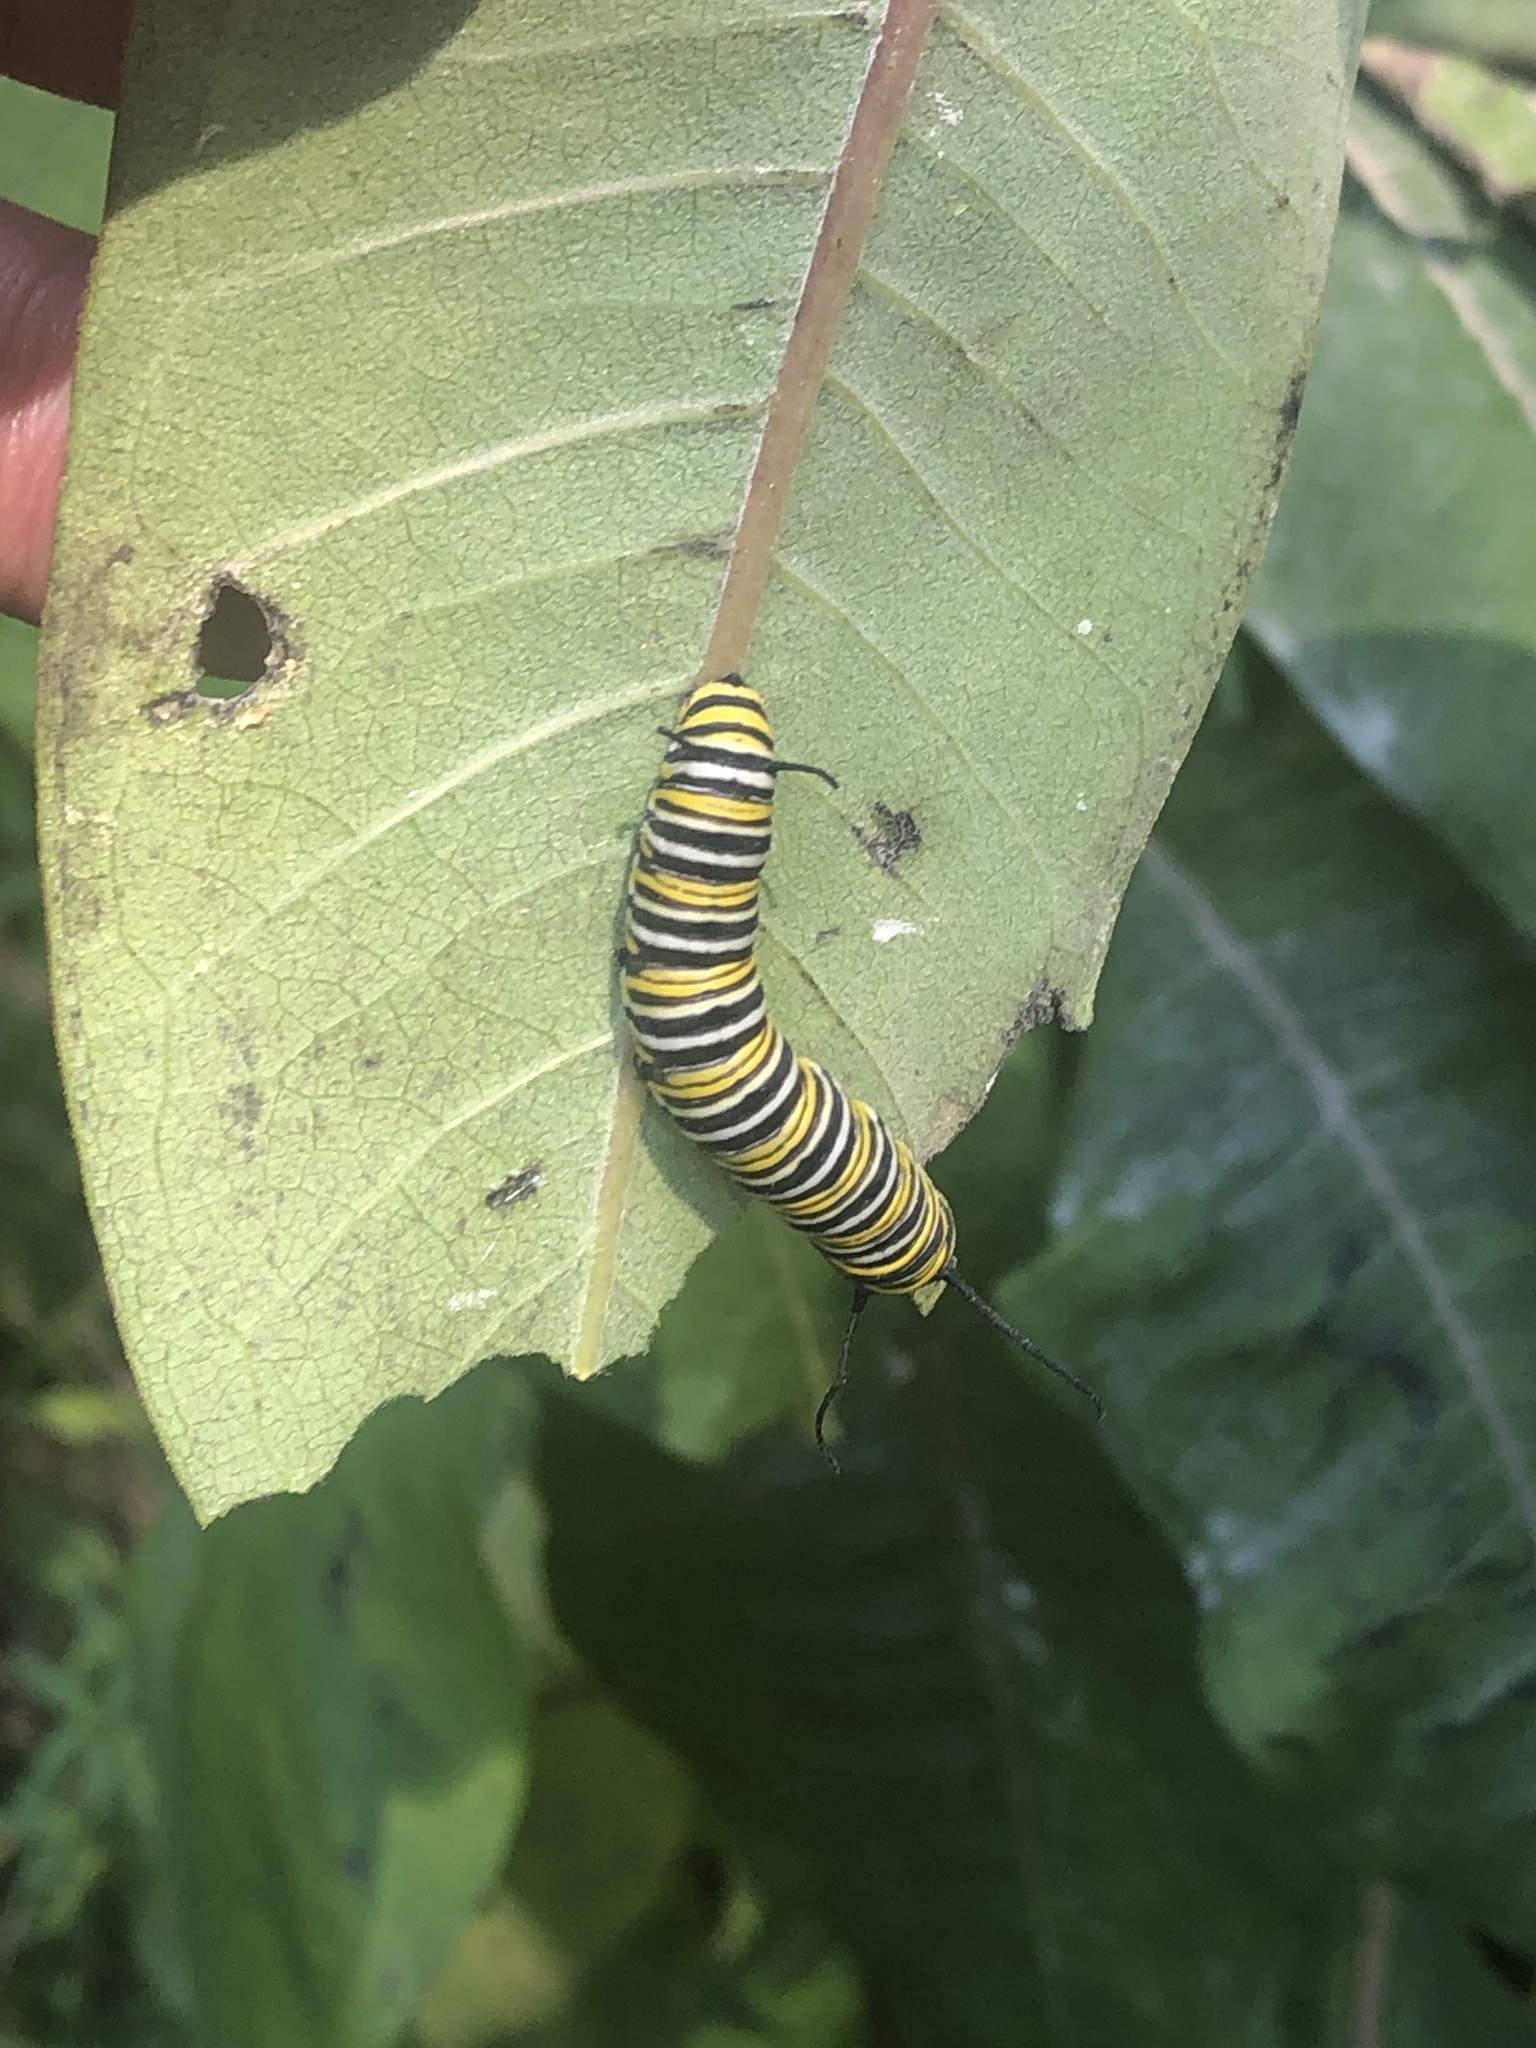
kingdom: Animalia
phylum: Arthropoda
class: Insecta
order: Lepidoptera
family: Nymphalidae
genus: Danaus
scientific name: Danaus plexippus
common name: Monarch
